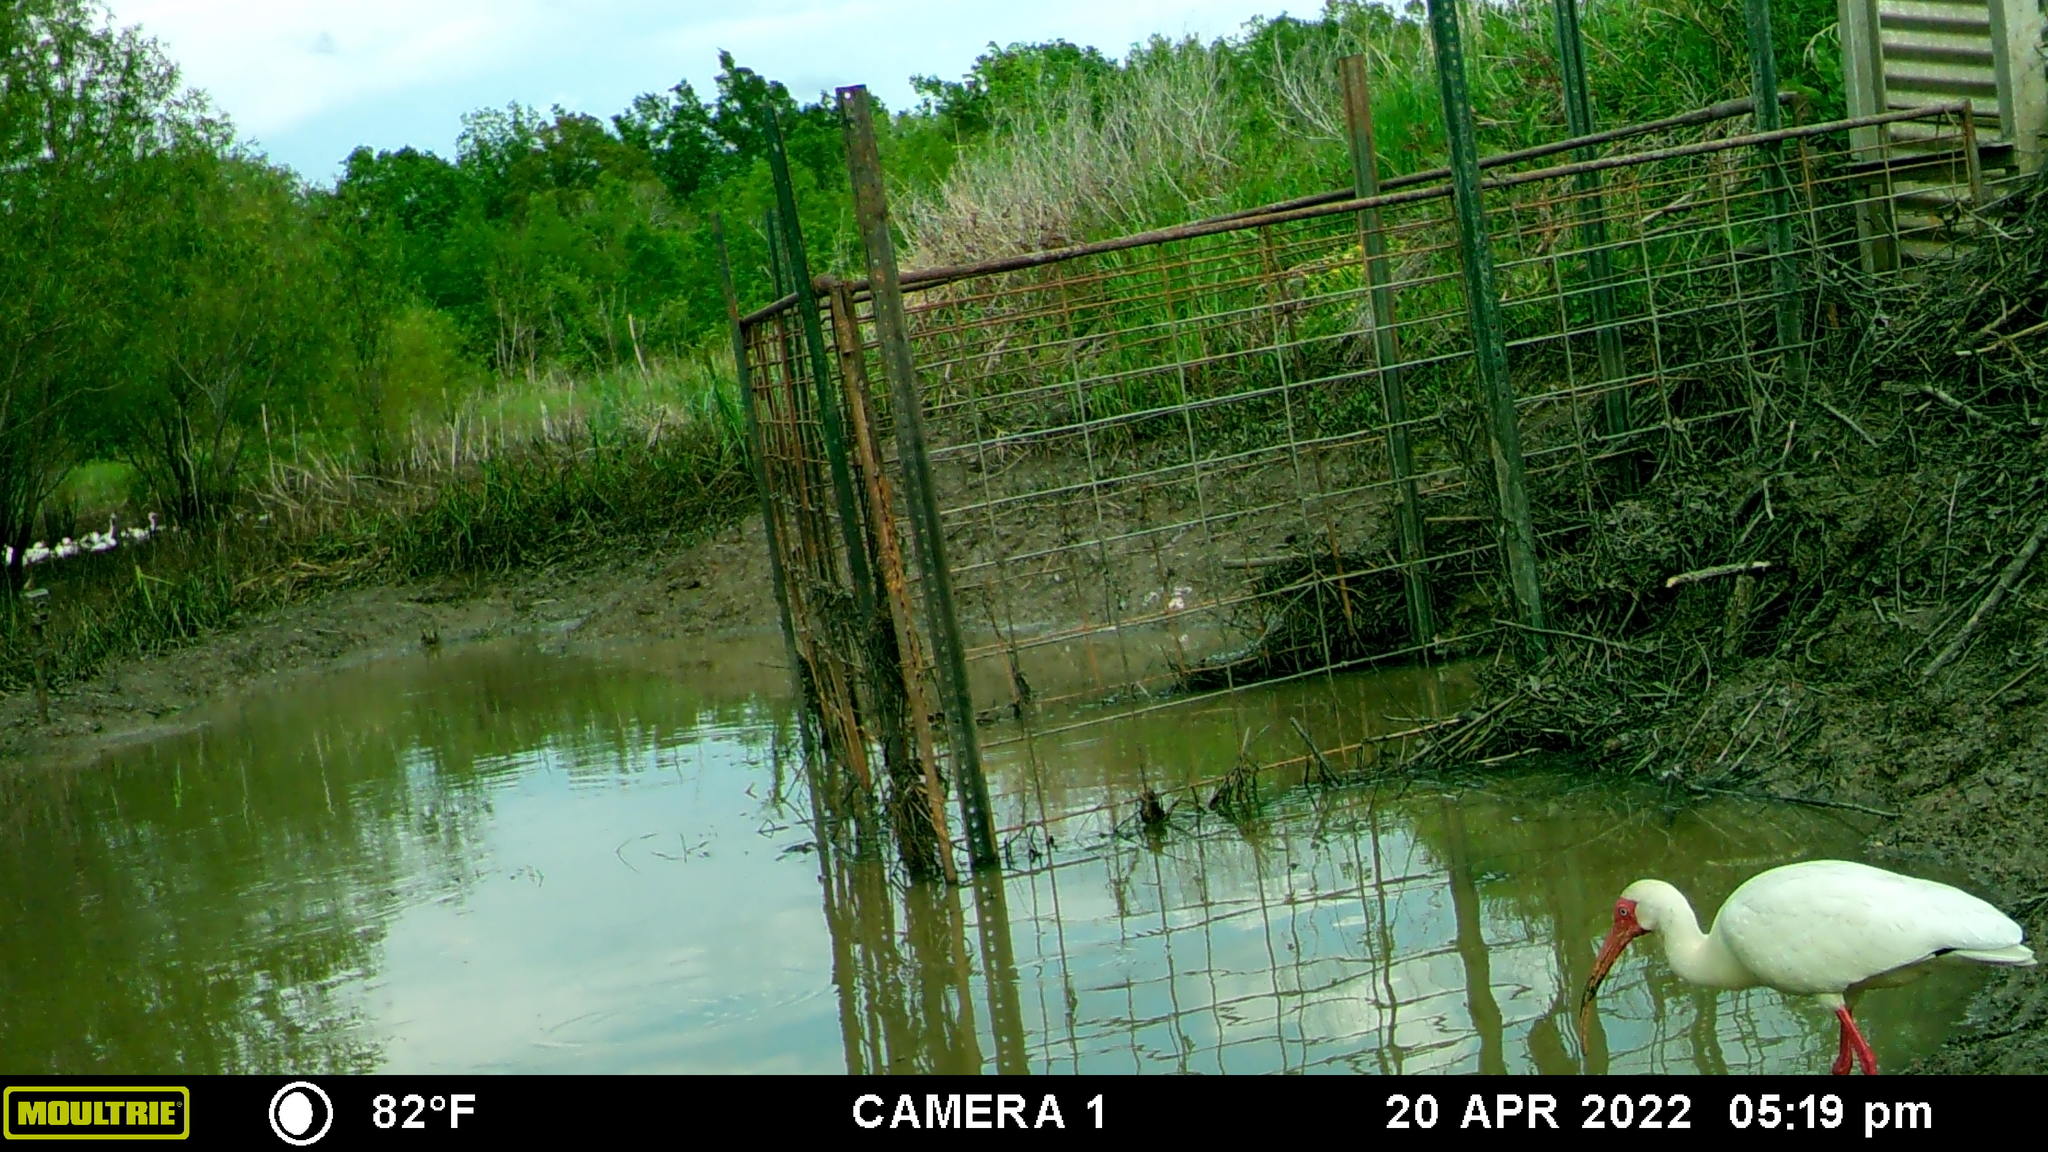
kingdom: Animalia
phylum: Chordata
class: Aves
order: Pelecaniformes
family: Threskiornithidae
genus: Eudocimus
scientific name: Eudocimus albus
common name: White ibis
